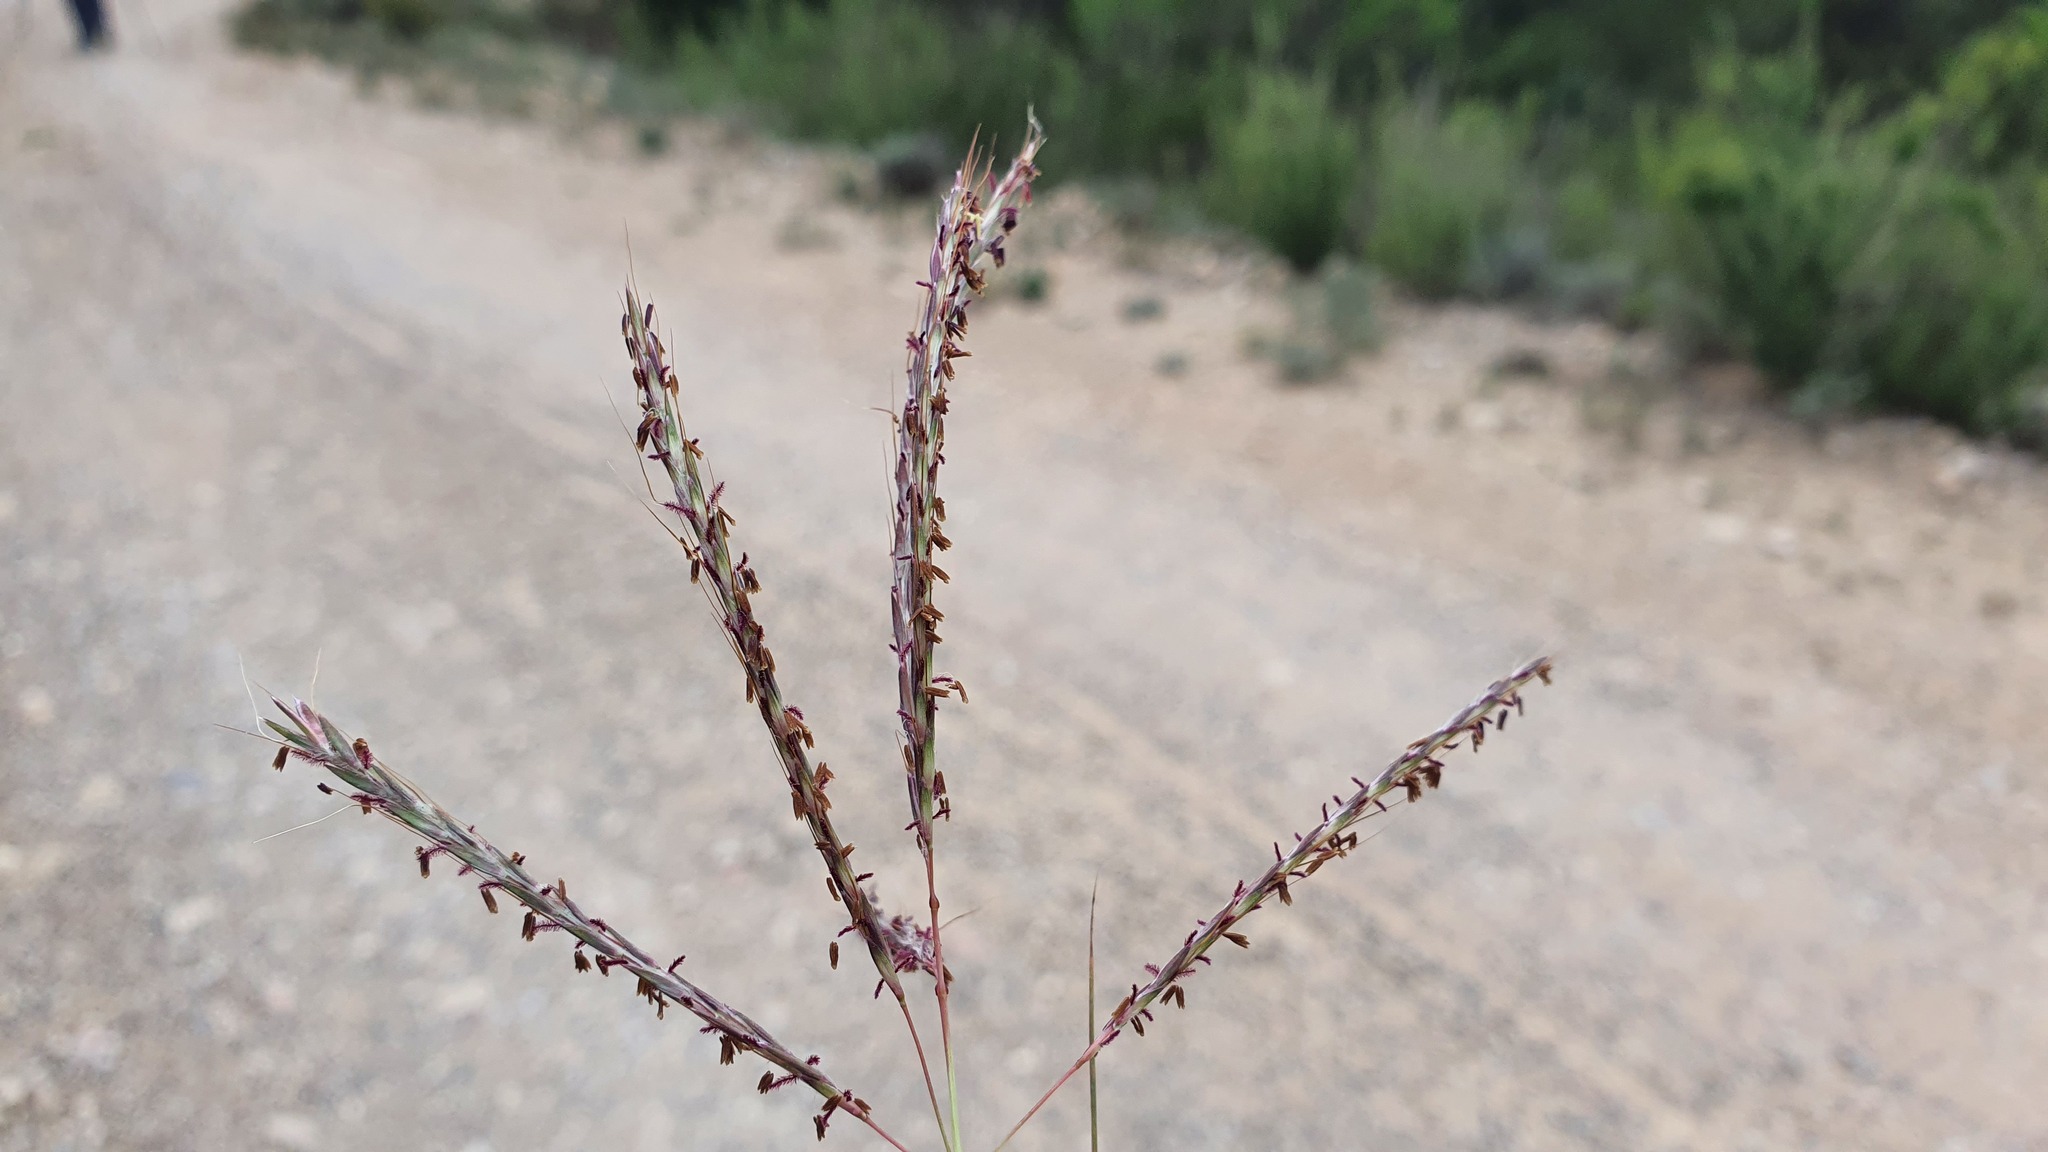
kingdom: Plantae
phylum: Tracheophyta
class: Liliopsida
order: Poales
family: Poaceae
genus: Bothriochloa
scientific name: Bothriochloa ischaemum
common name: Yellow bluestem
